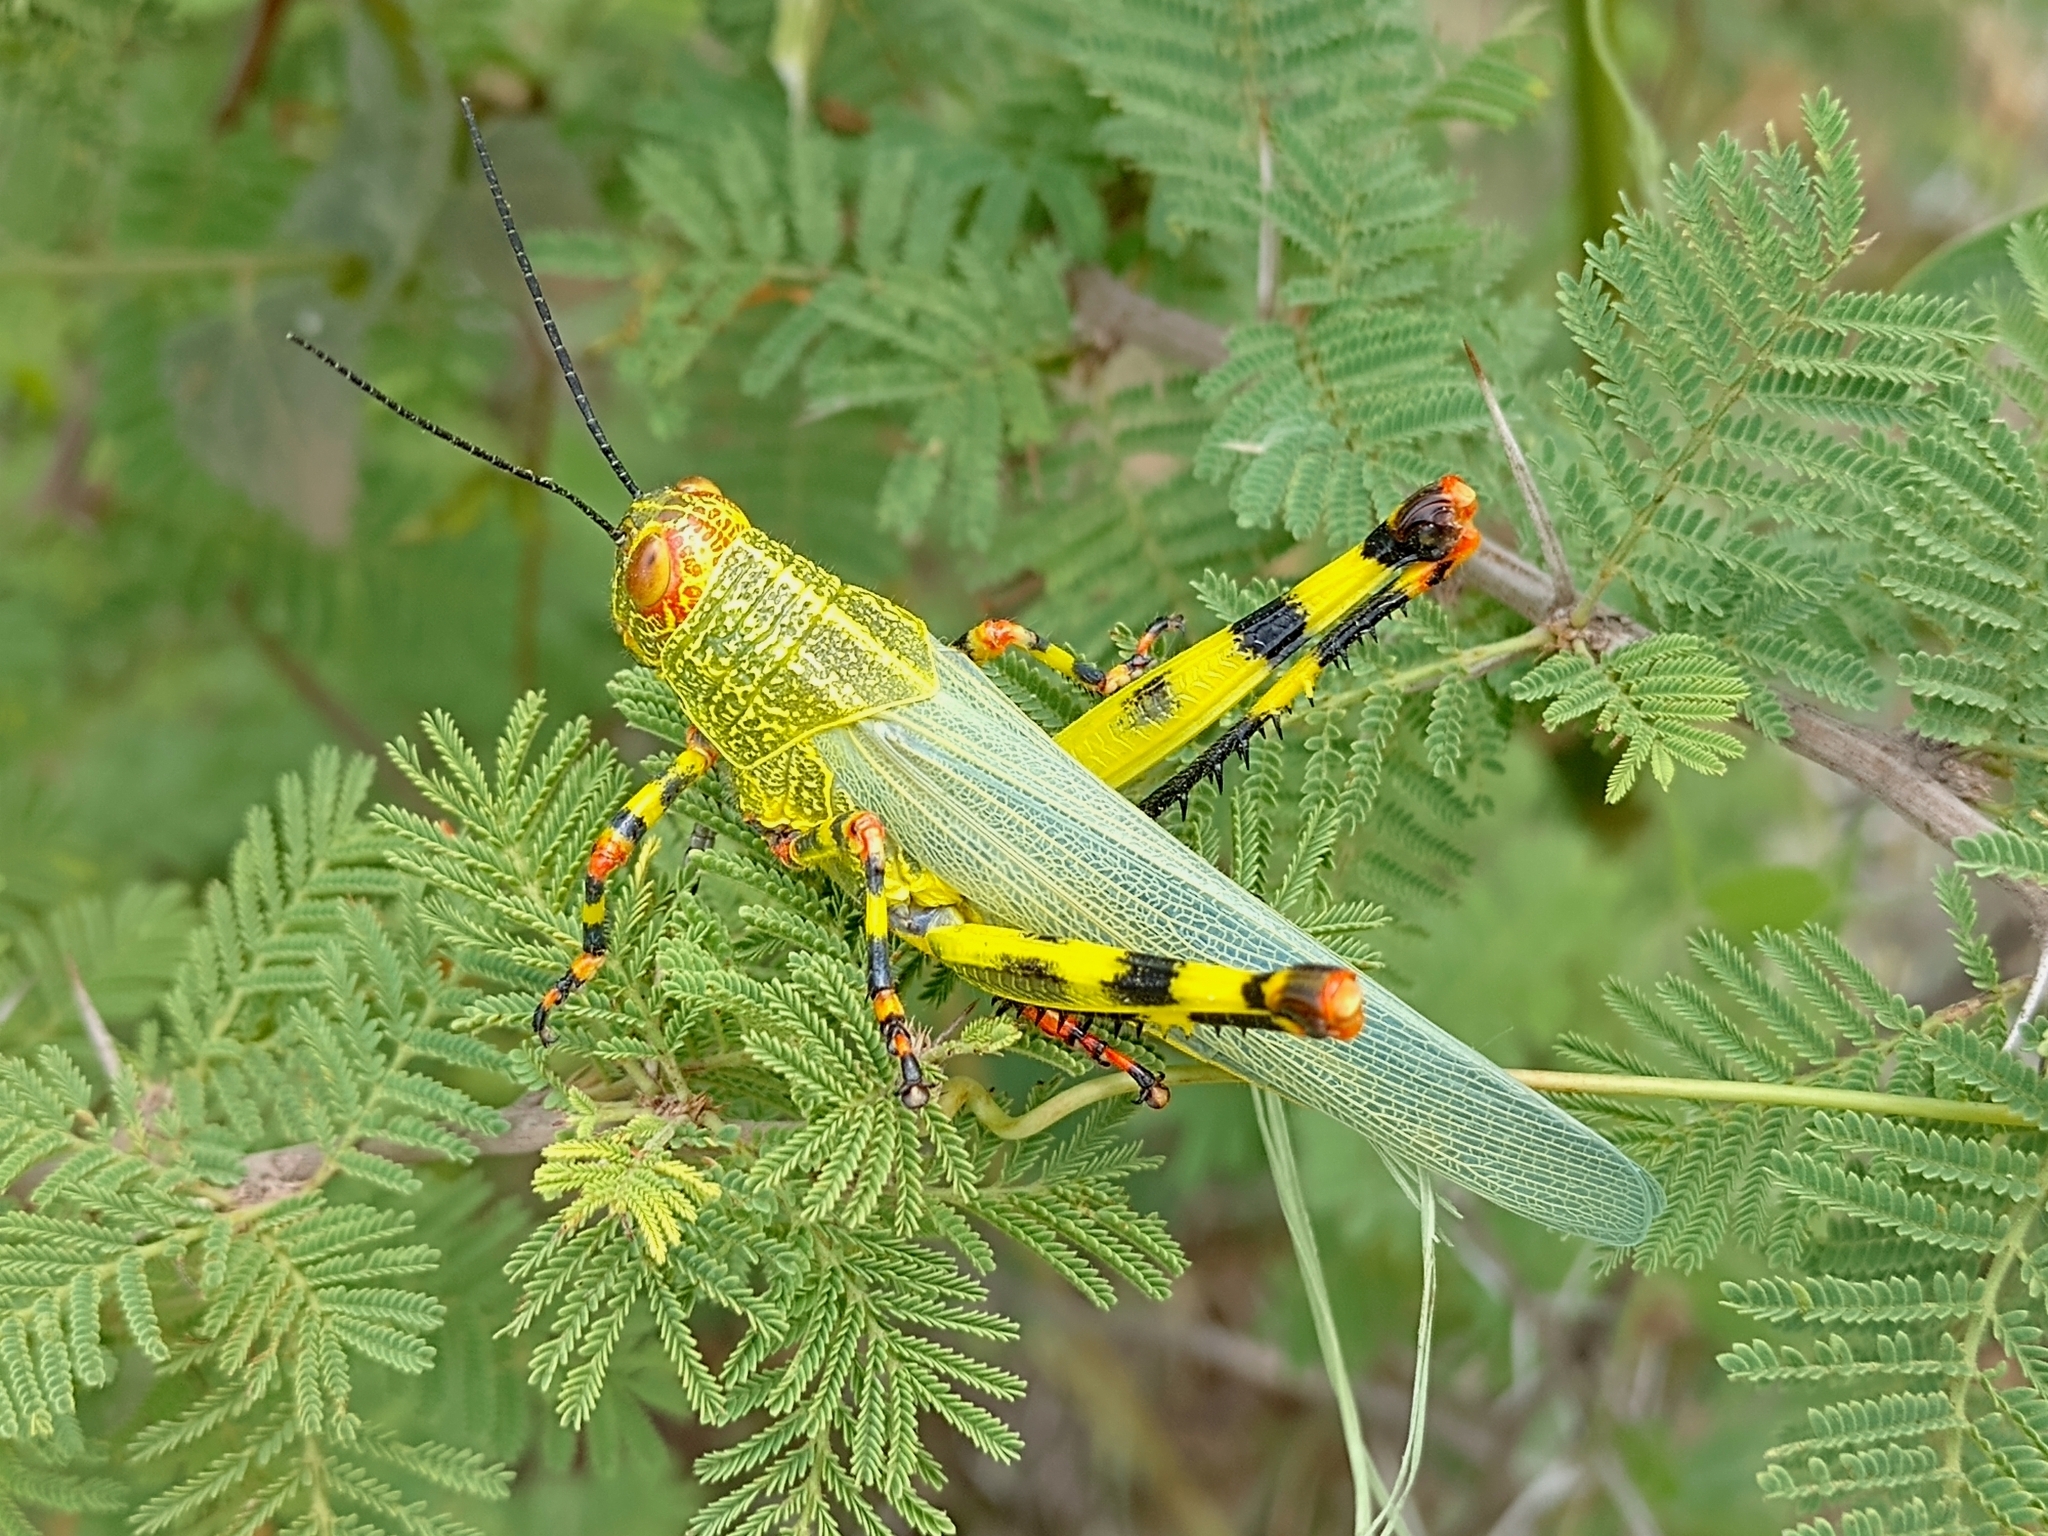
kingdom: Animalia
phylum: Arthropoda
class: Insecta
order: Orthoptera
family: Romaleidae
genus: Zoniopoda
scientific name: Zoniopoda tarsata
